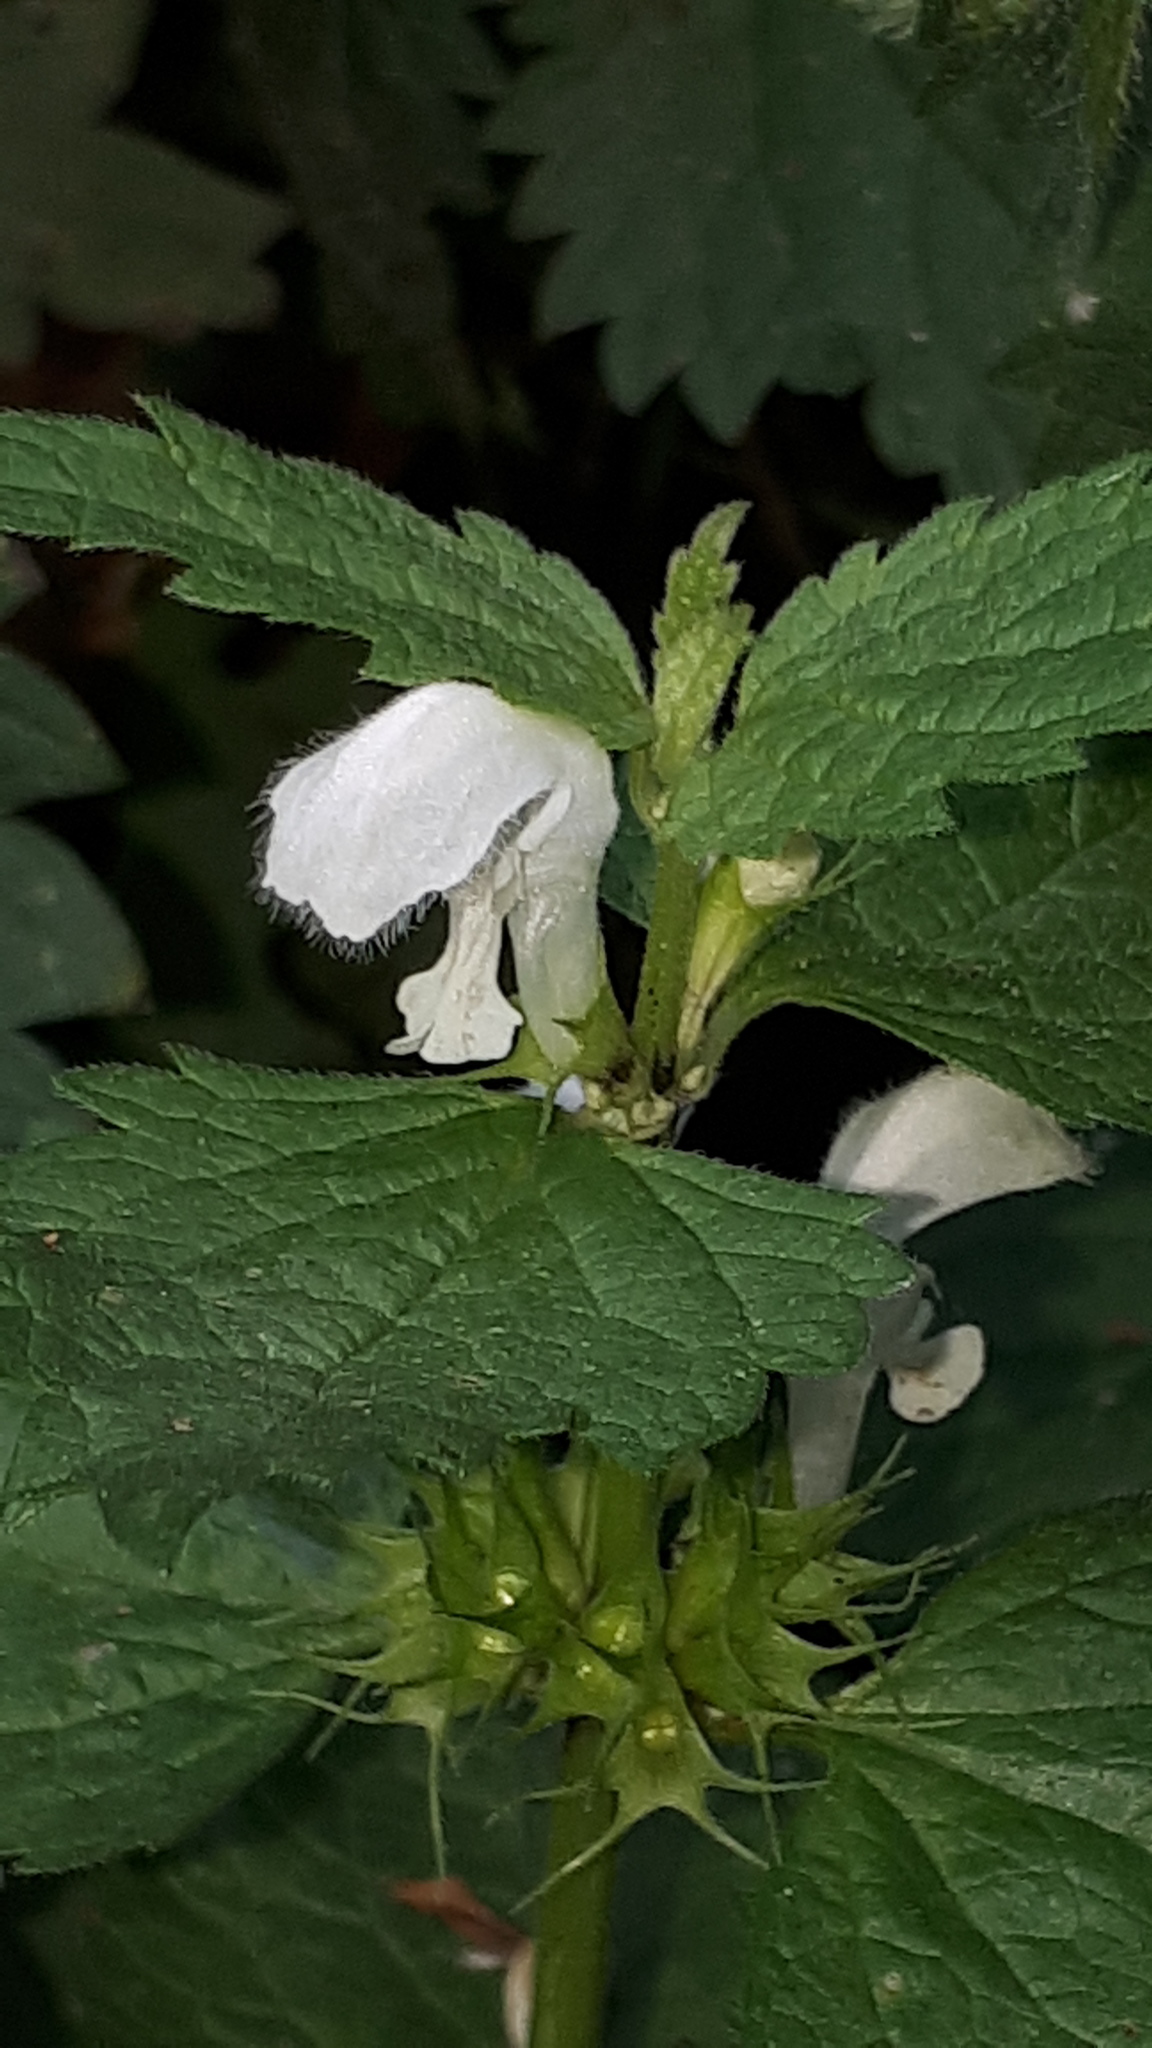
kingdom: Plantae
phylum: Tracheophyta
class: Magnoliopsida
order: Lamiales
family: Lamiaceae
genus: Lamium
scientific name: Lamium album
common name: White dead-nettle
